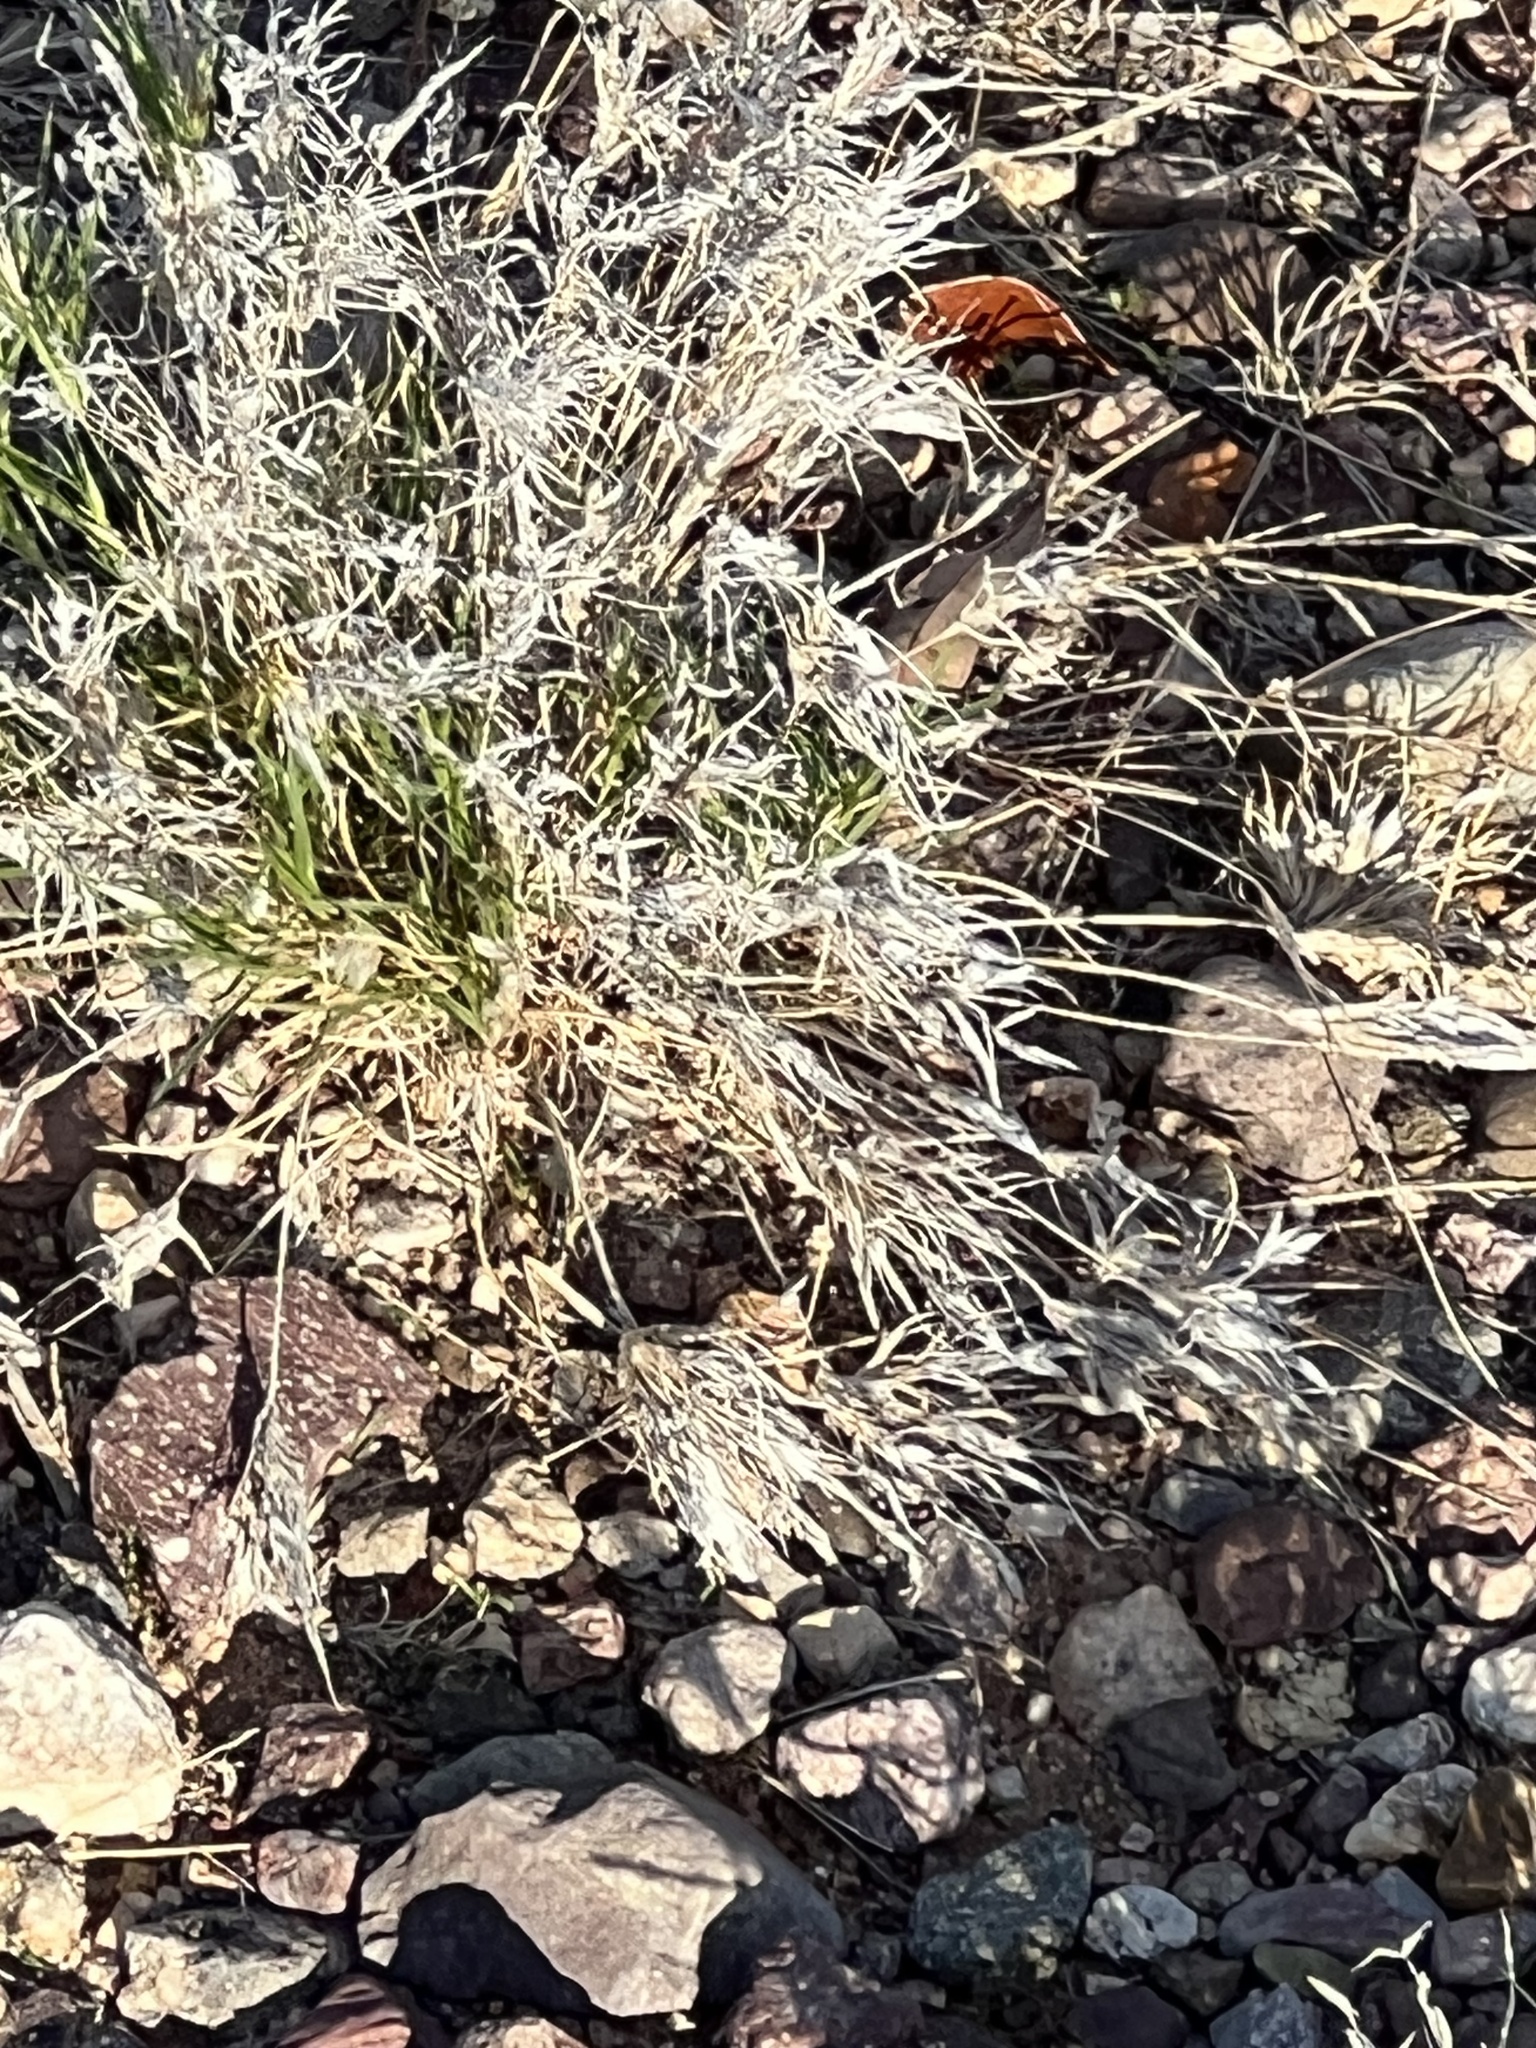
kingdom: Plantae
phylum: Tracheophyta
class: Liliopsida
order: Poales
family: Poaceae
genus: Dasyochloa
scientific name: Dasyochloa pulchella
